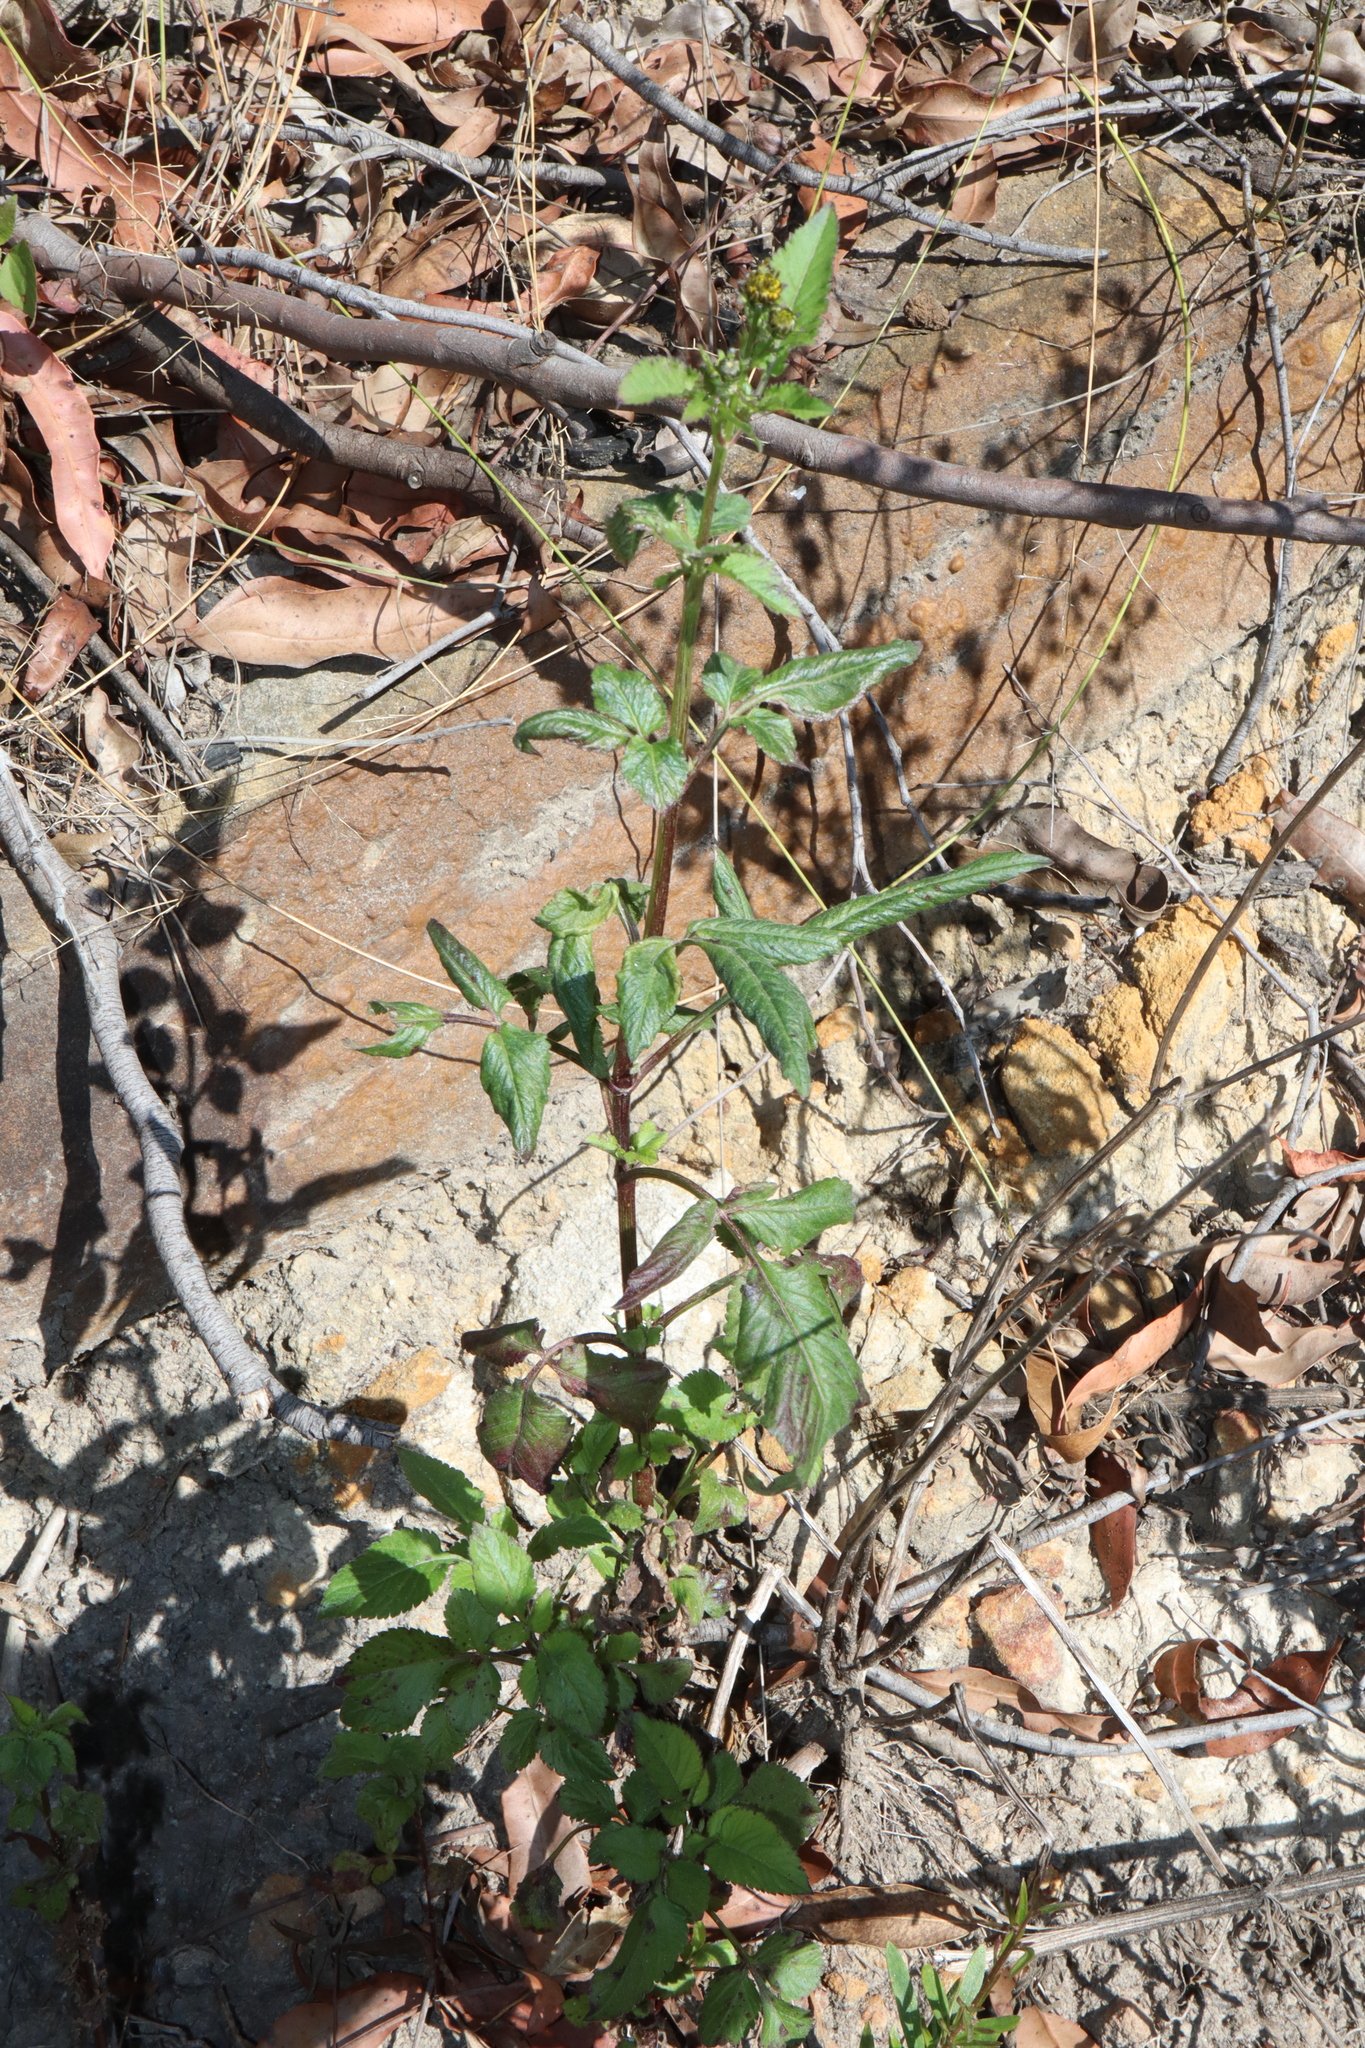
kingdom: Plantae
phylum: Tracheophyta
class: Magnoliopsida
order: Asterales
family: Asteraceae
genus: Bidens
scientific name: Bidens pilosa
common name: Black-jack
